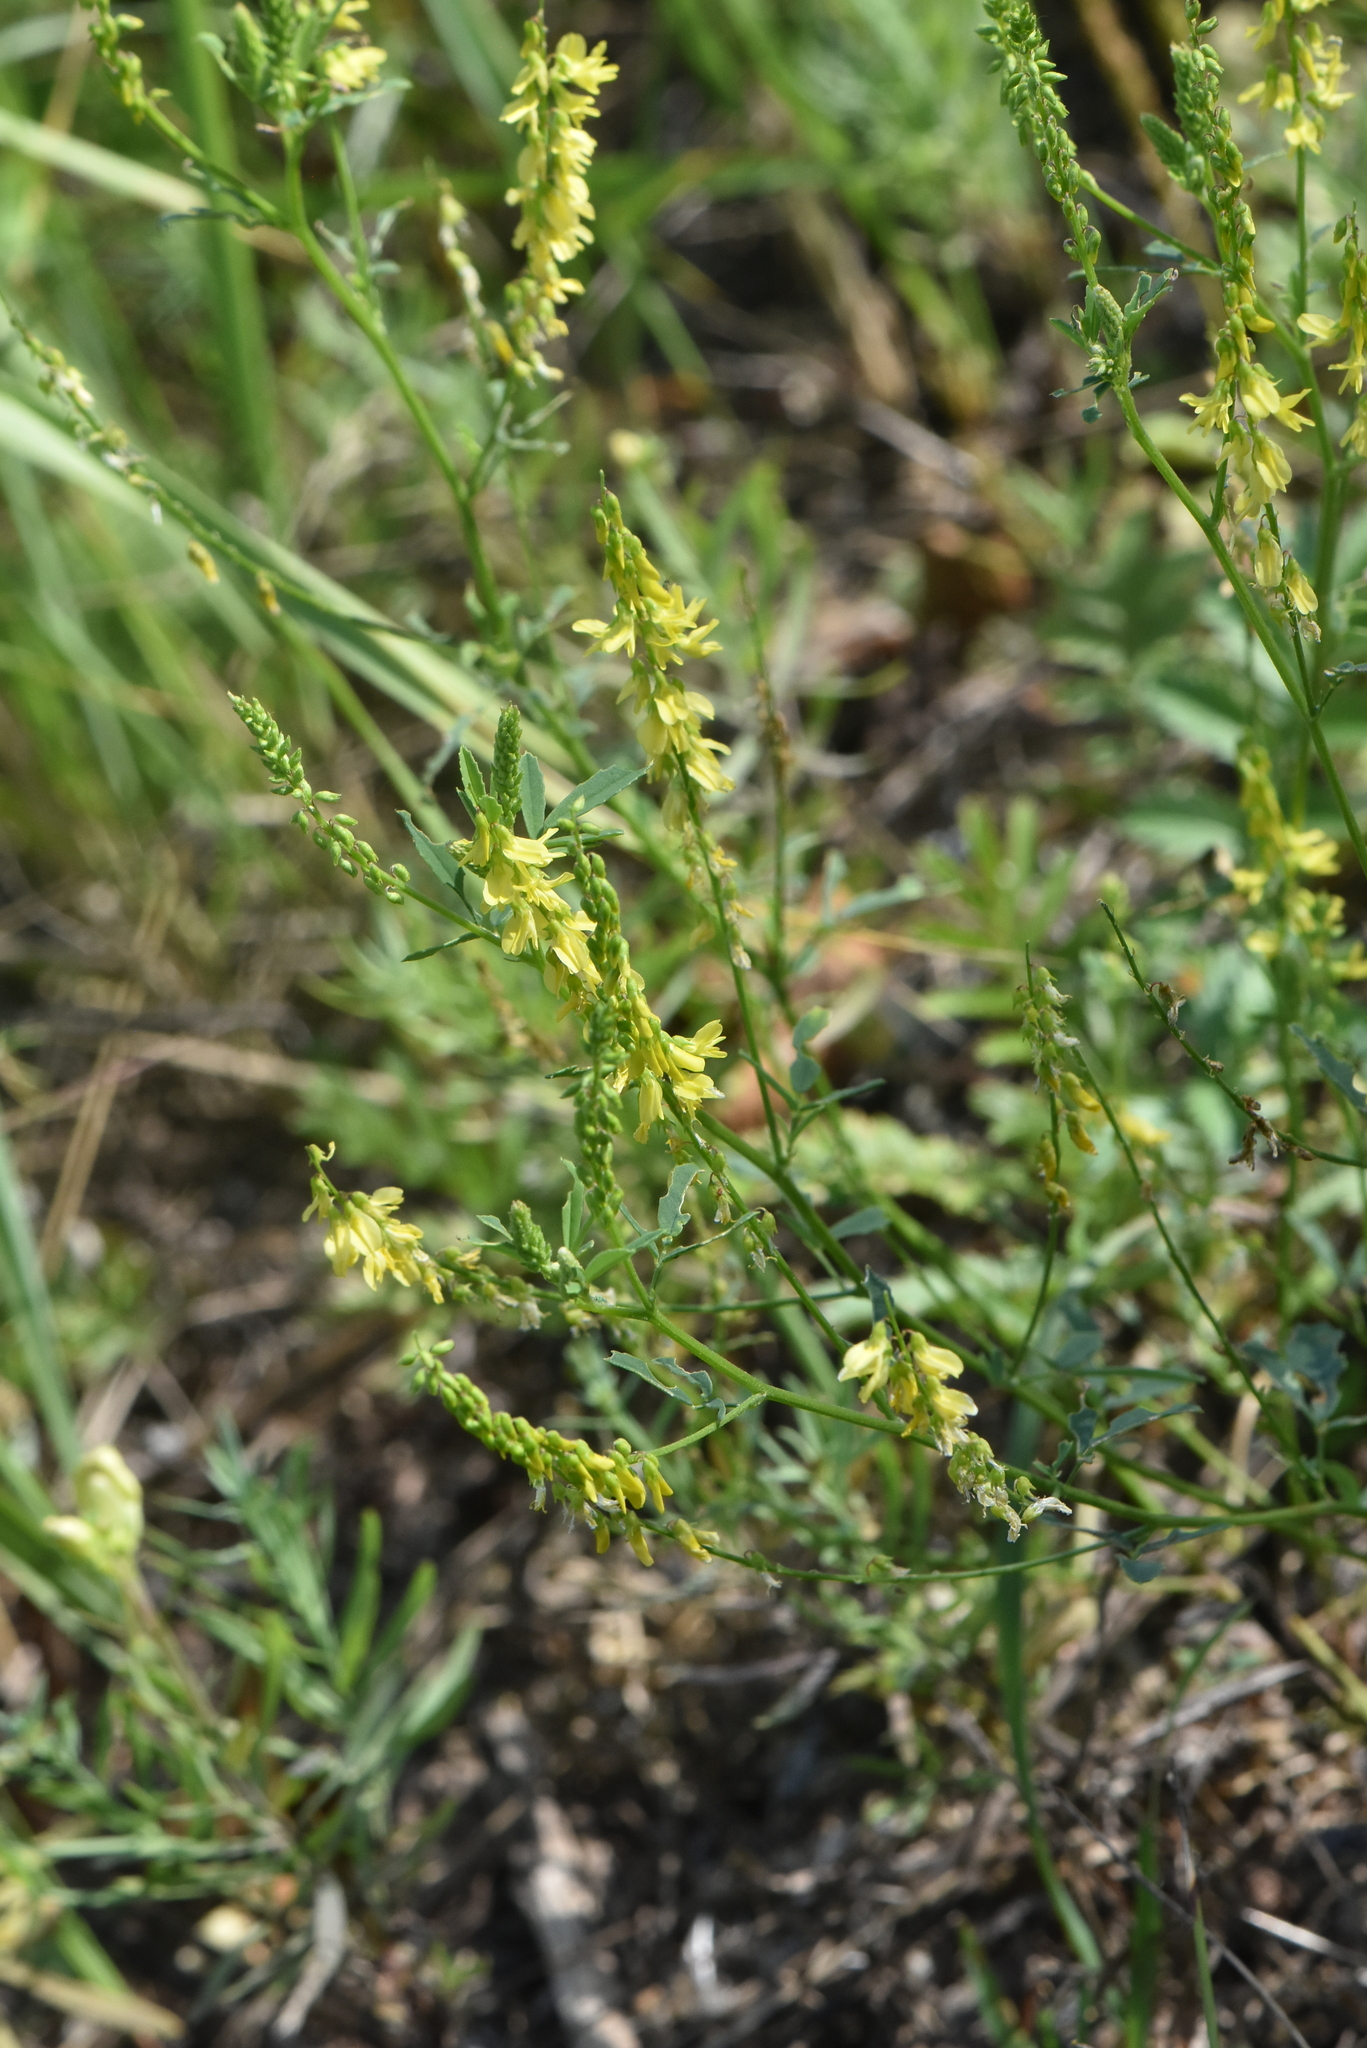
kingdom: Plantae
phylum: Tracheophyta
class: Magnoliopsida
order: Fabales
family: Fabaceae
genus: Melilotus
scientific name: Melilotus officinalis
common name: Sweetclover
